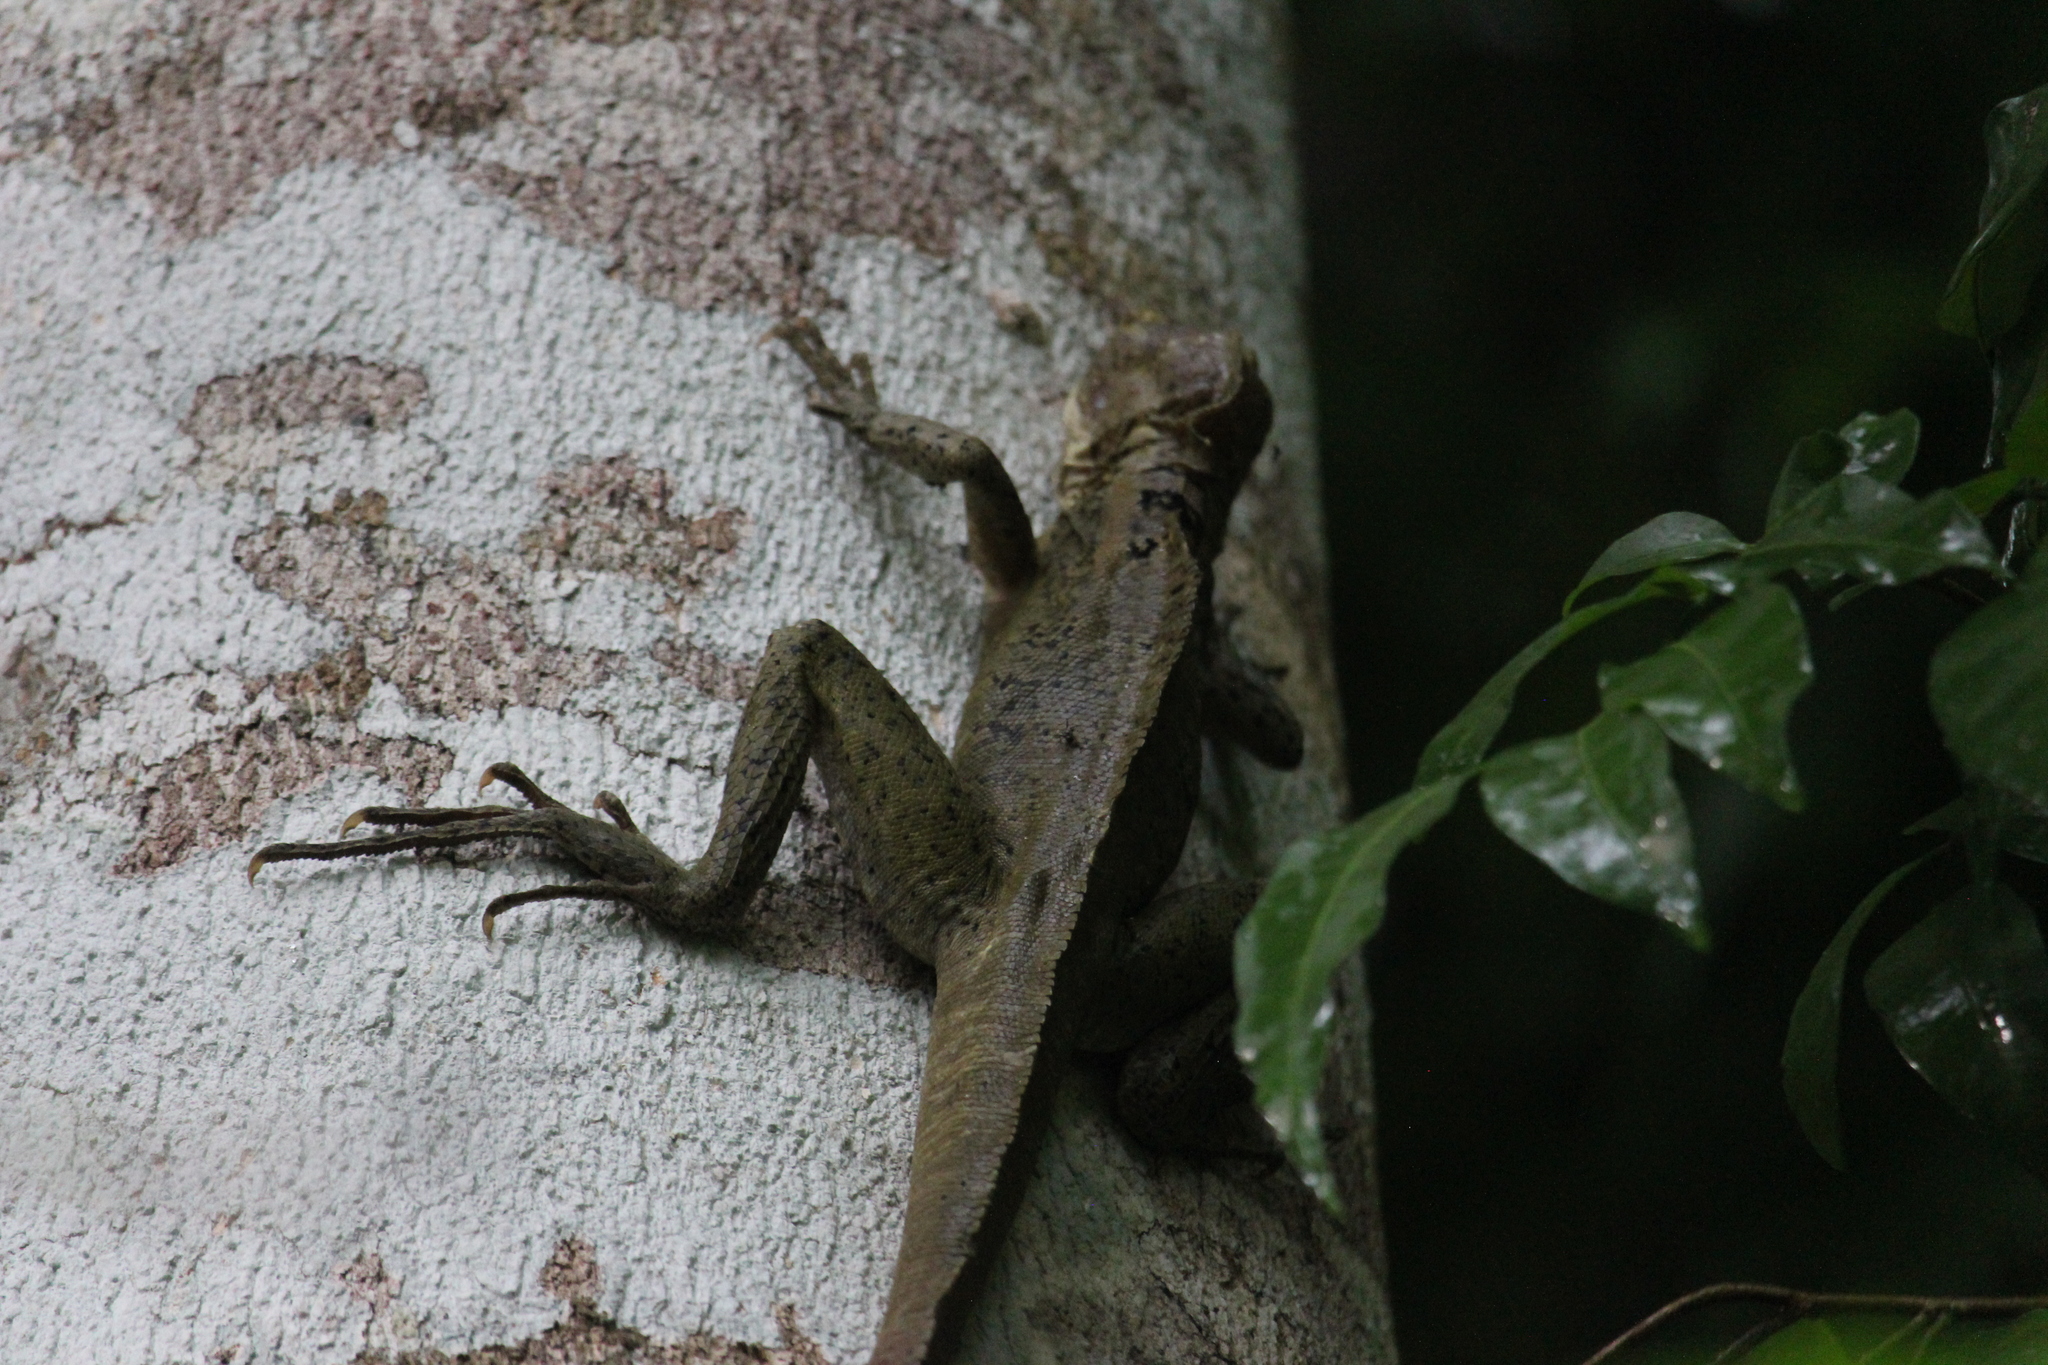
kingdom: Animalia
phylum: Chordata
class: Squamata
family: Corytophanidae
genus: Basiliscus
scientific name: Basiliscus vittatus
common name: Brown basilisk
